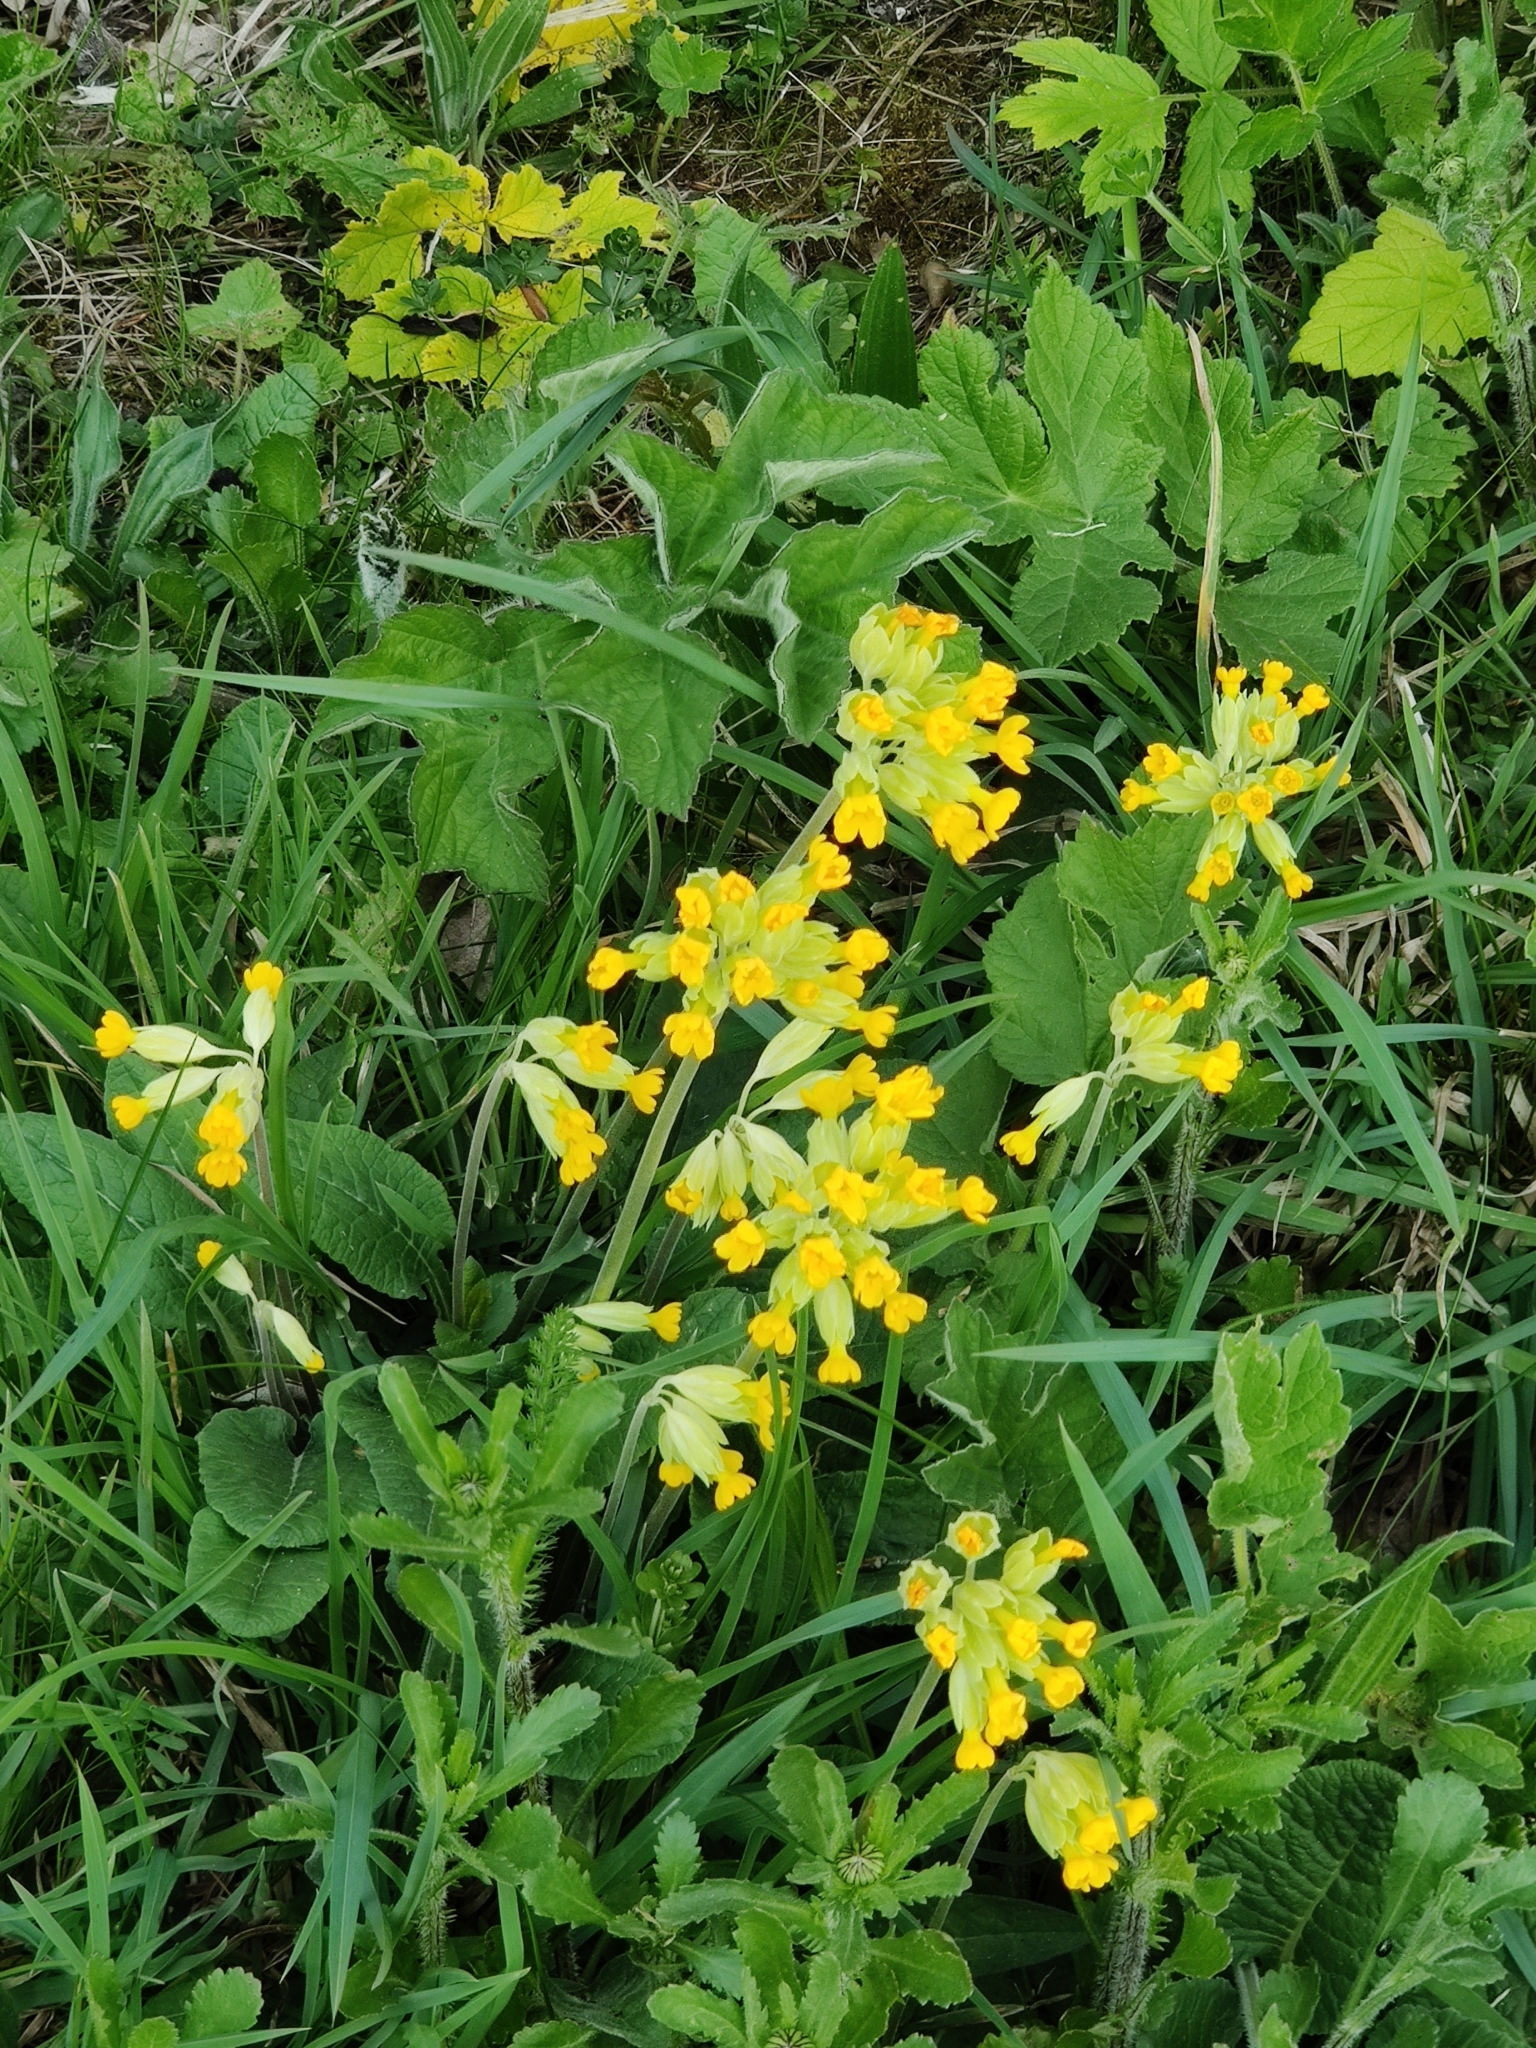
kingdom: Plantae
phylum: Tracheophyta
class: Magnoliopsida
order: Ericales
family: Primulaceae
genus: Primula
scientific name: Primula veris
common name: Cowslip
